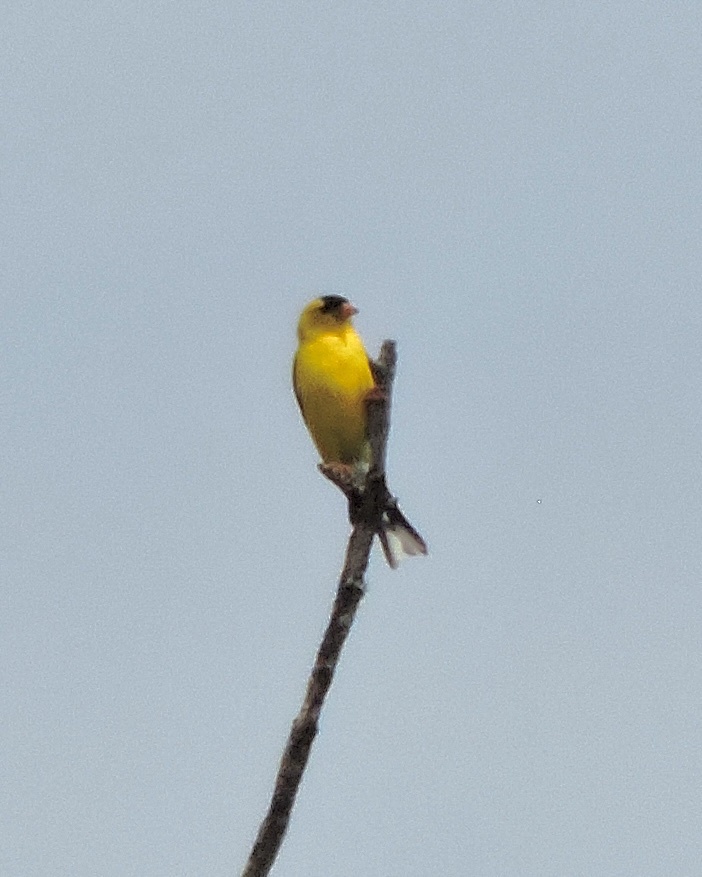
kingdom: Animalia
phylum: Chordata
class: Aves
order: Passeriformes
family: Fringillidae
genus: Spinus
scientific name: Spinus tristis
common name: American goldfinch
